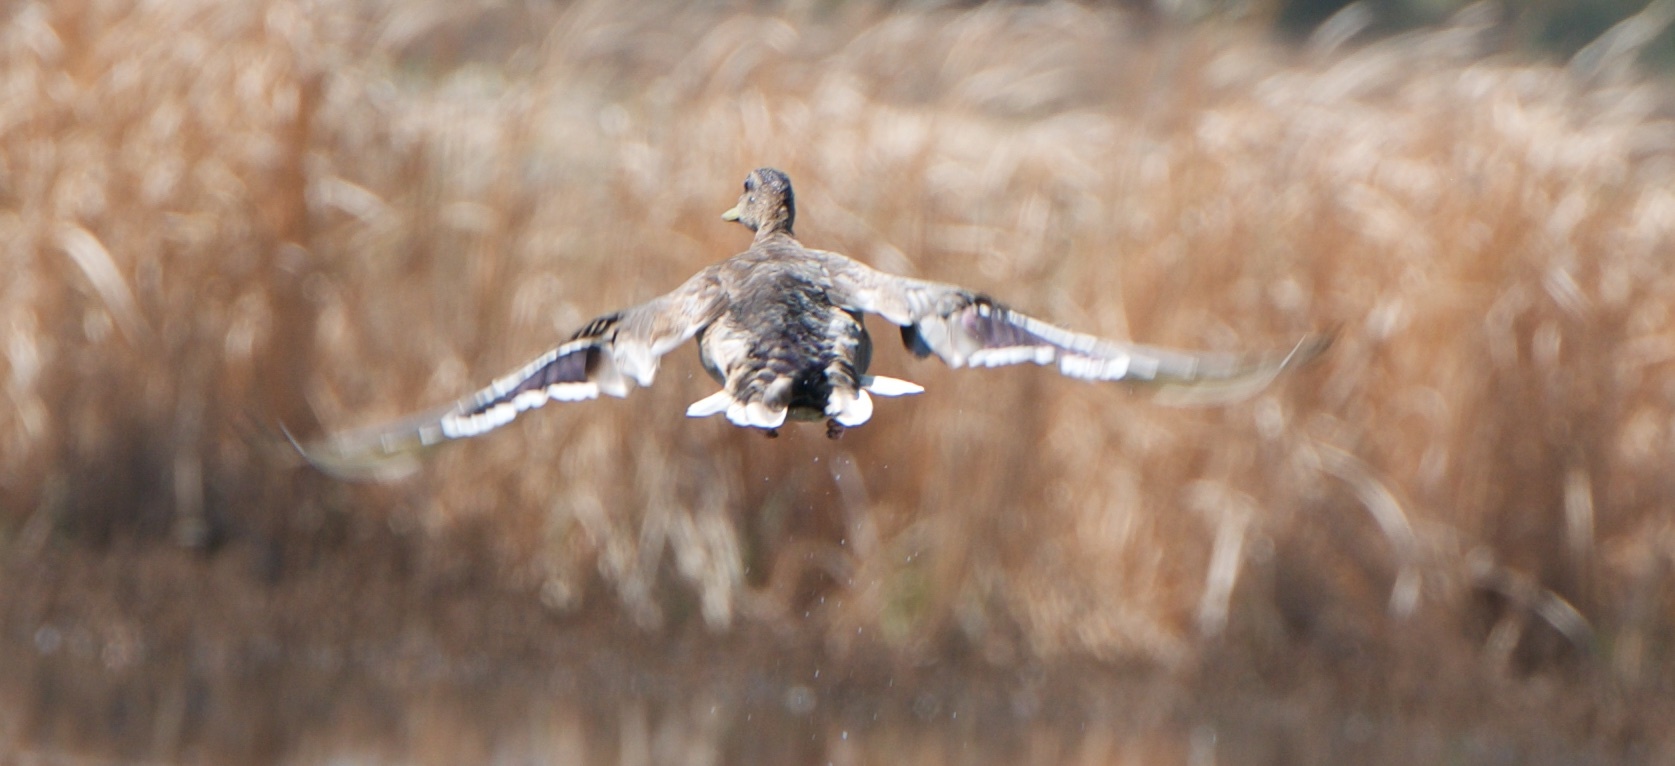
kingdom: Animalia
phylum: Chordata
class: Aves
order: Anseriformes
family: Anatidae
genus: Anas
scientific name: Anas platyrhynchos
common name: Mallard
